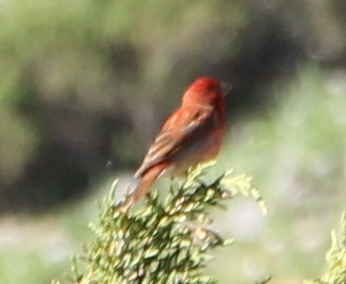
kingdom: Animalia
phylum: Chordata
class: Aves
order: Passeriformes
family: Fringillidae
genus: Carpodacus
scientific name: Carpodacus erythrinus
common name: Common rosefinch
